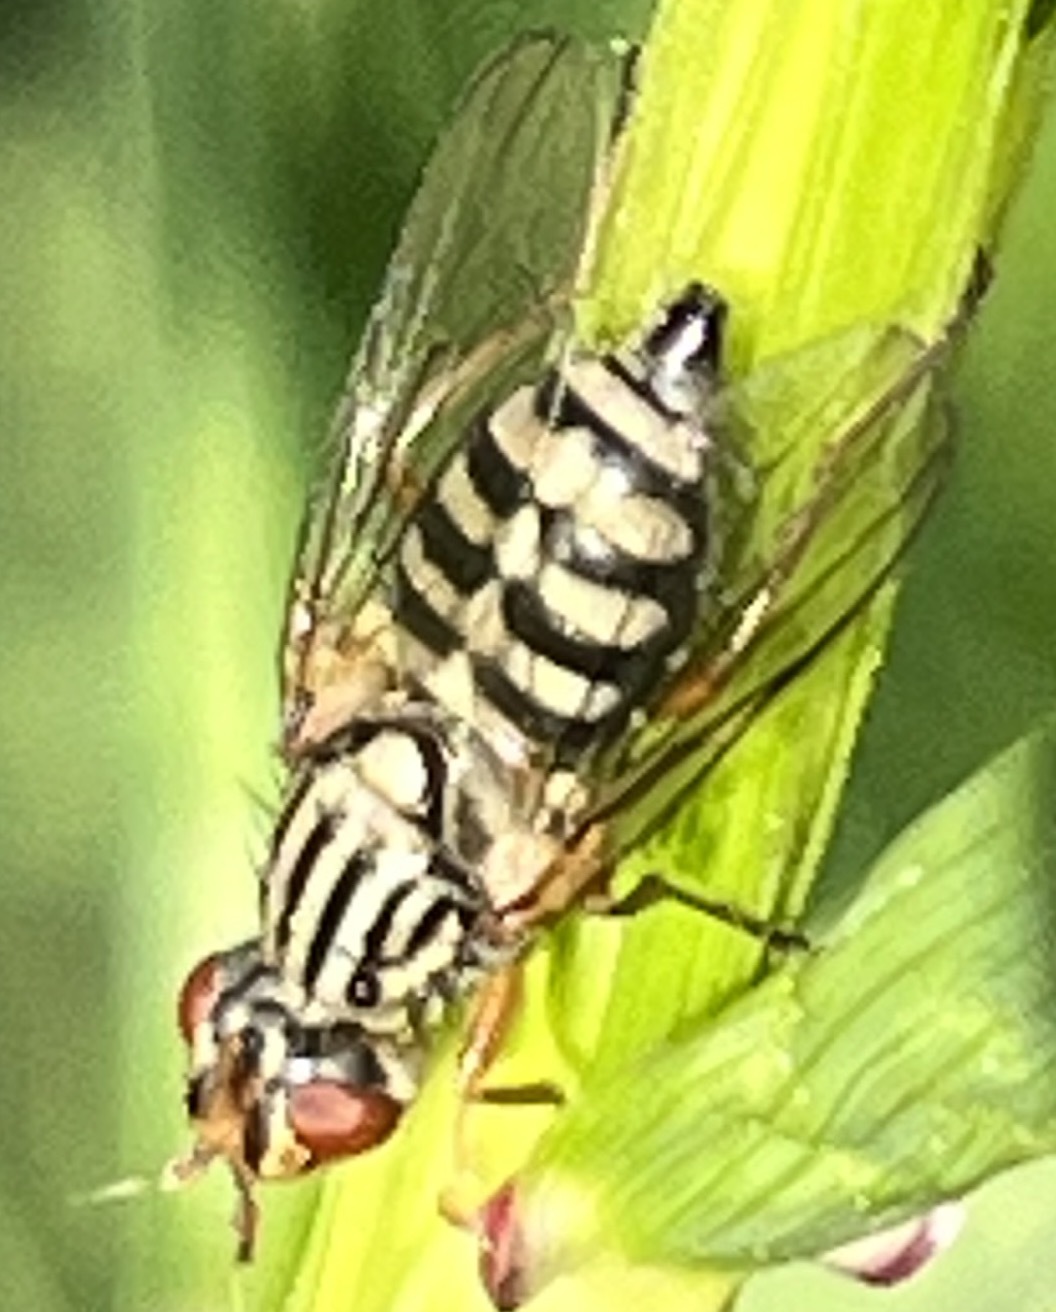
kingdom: Animalia
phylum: Arthropoda
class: Insecta
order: Diptera
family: Ulidiidae
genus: Dorycera
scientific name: Dorycera judea
